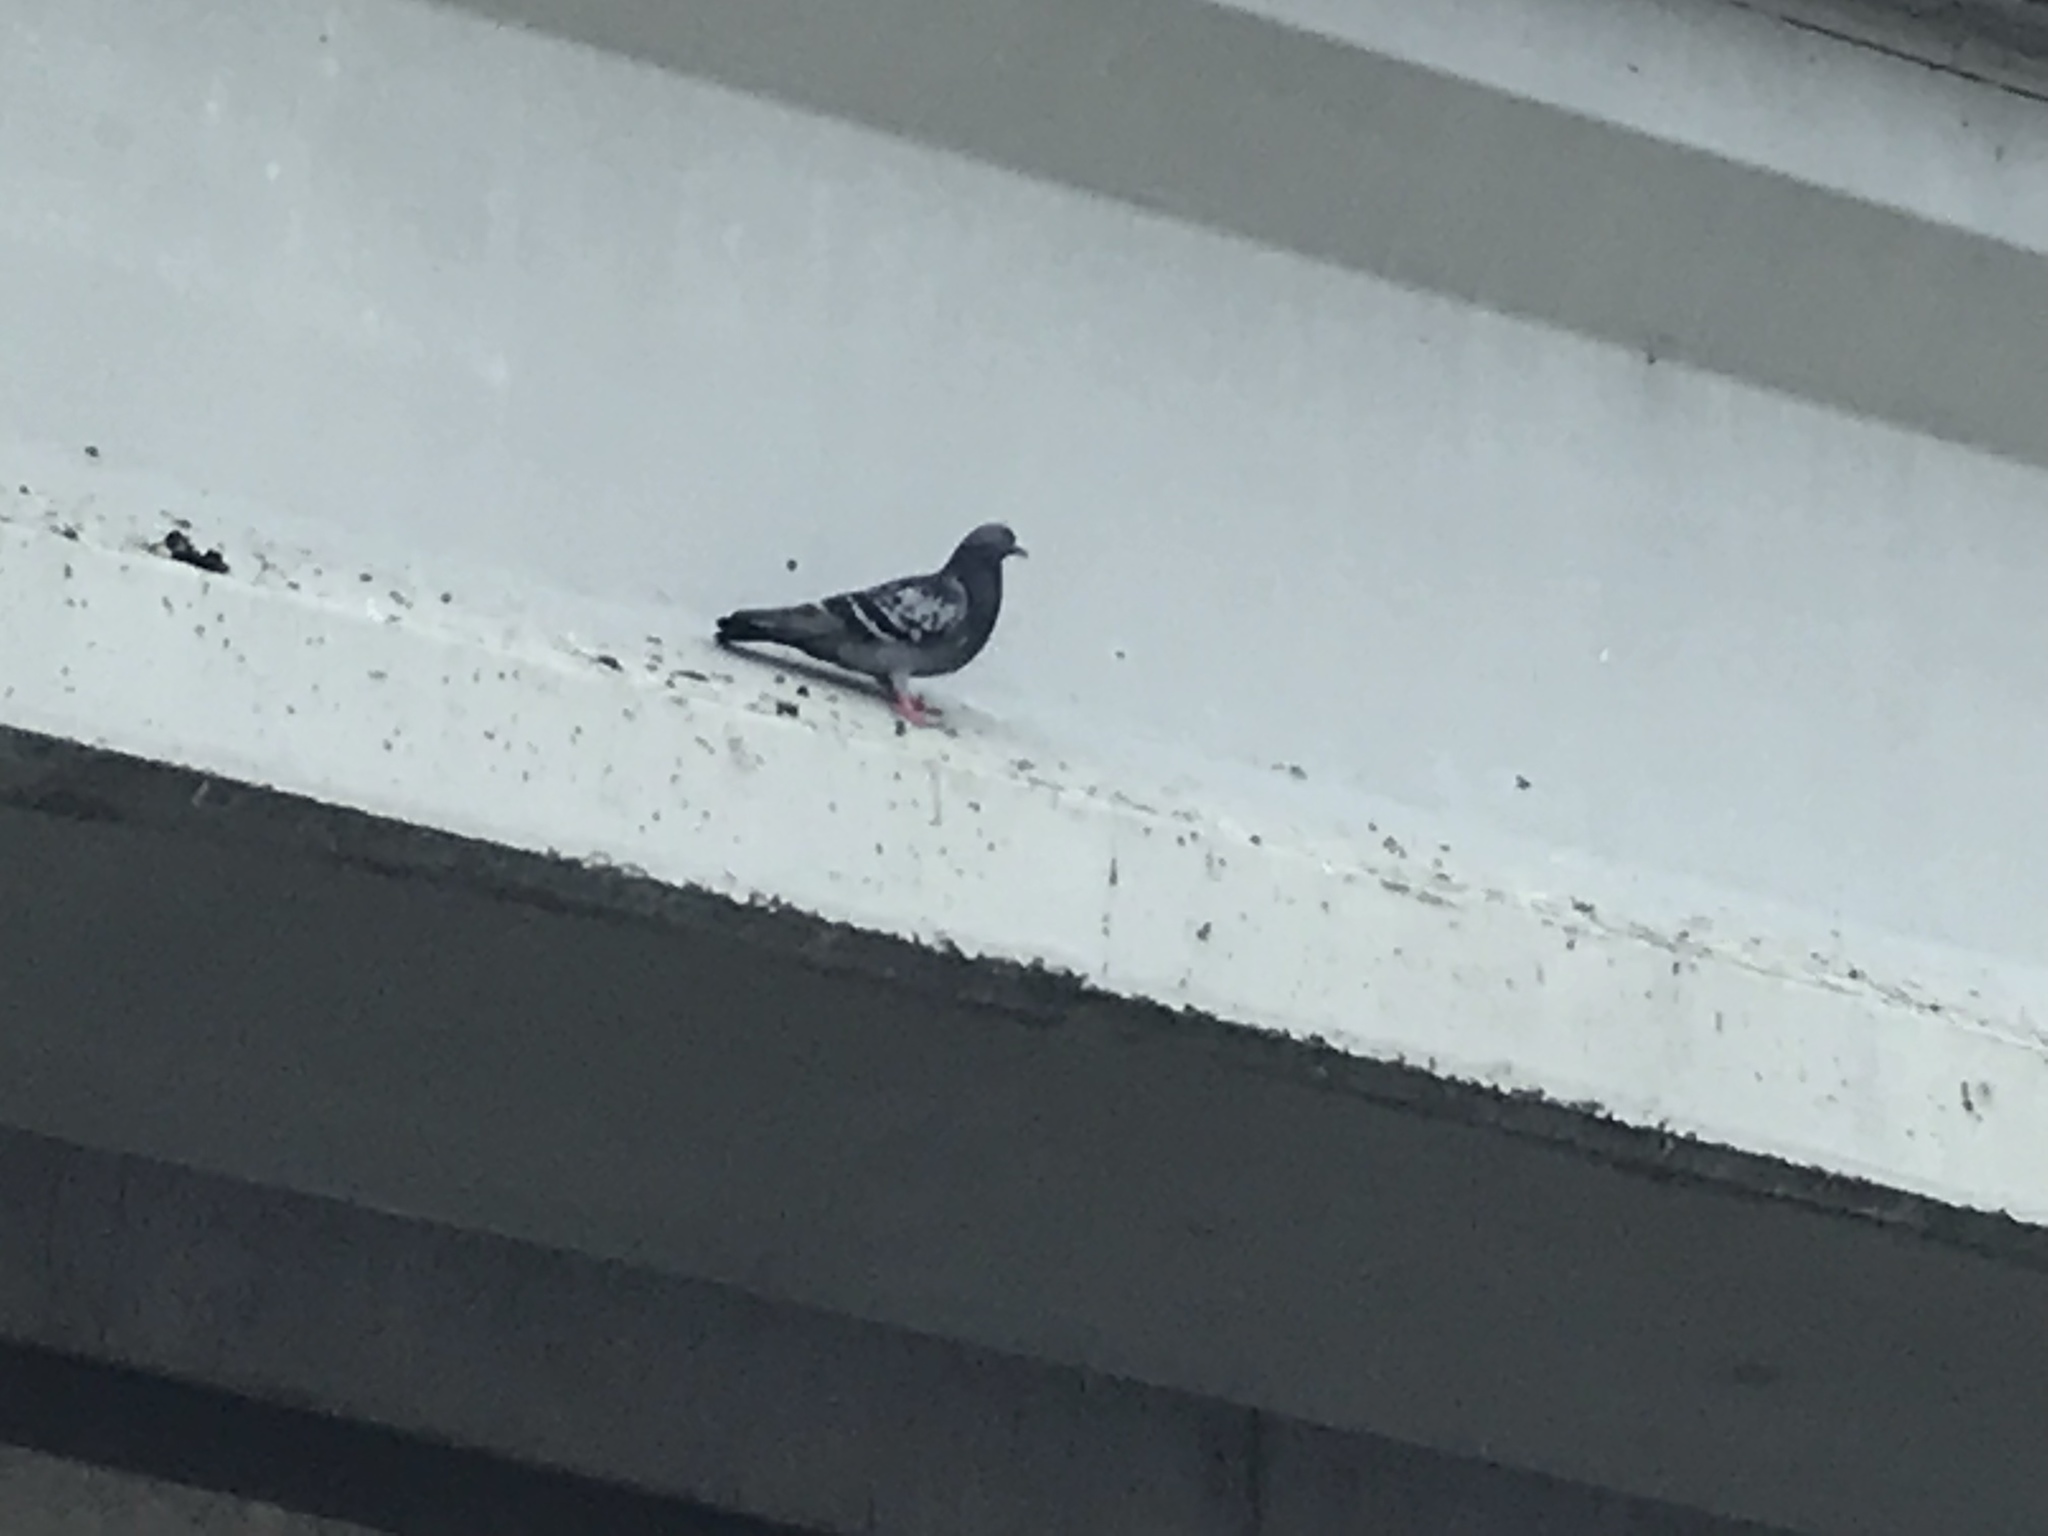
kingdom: Animalia
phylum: Chordata
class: Aves
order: Columbiformes
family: Columbidae
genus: Columba
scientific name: Columba livia
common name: Rock pigeon
